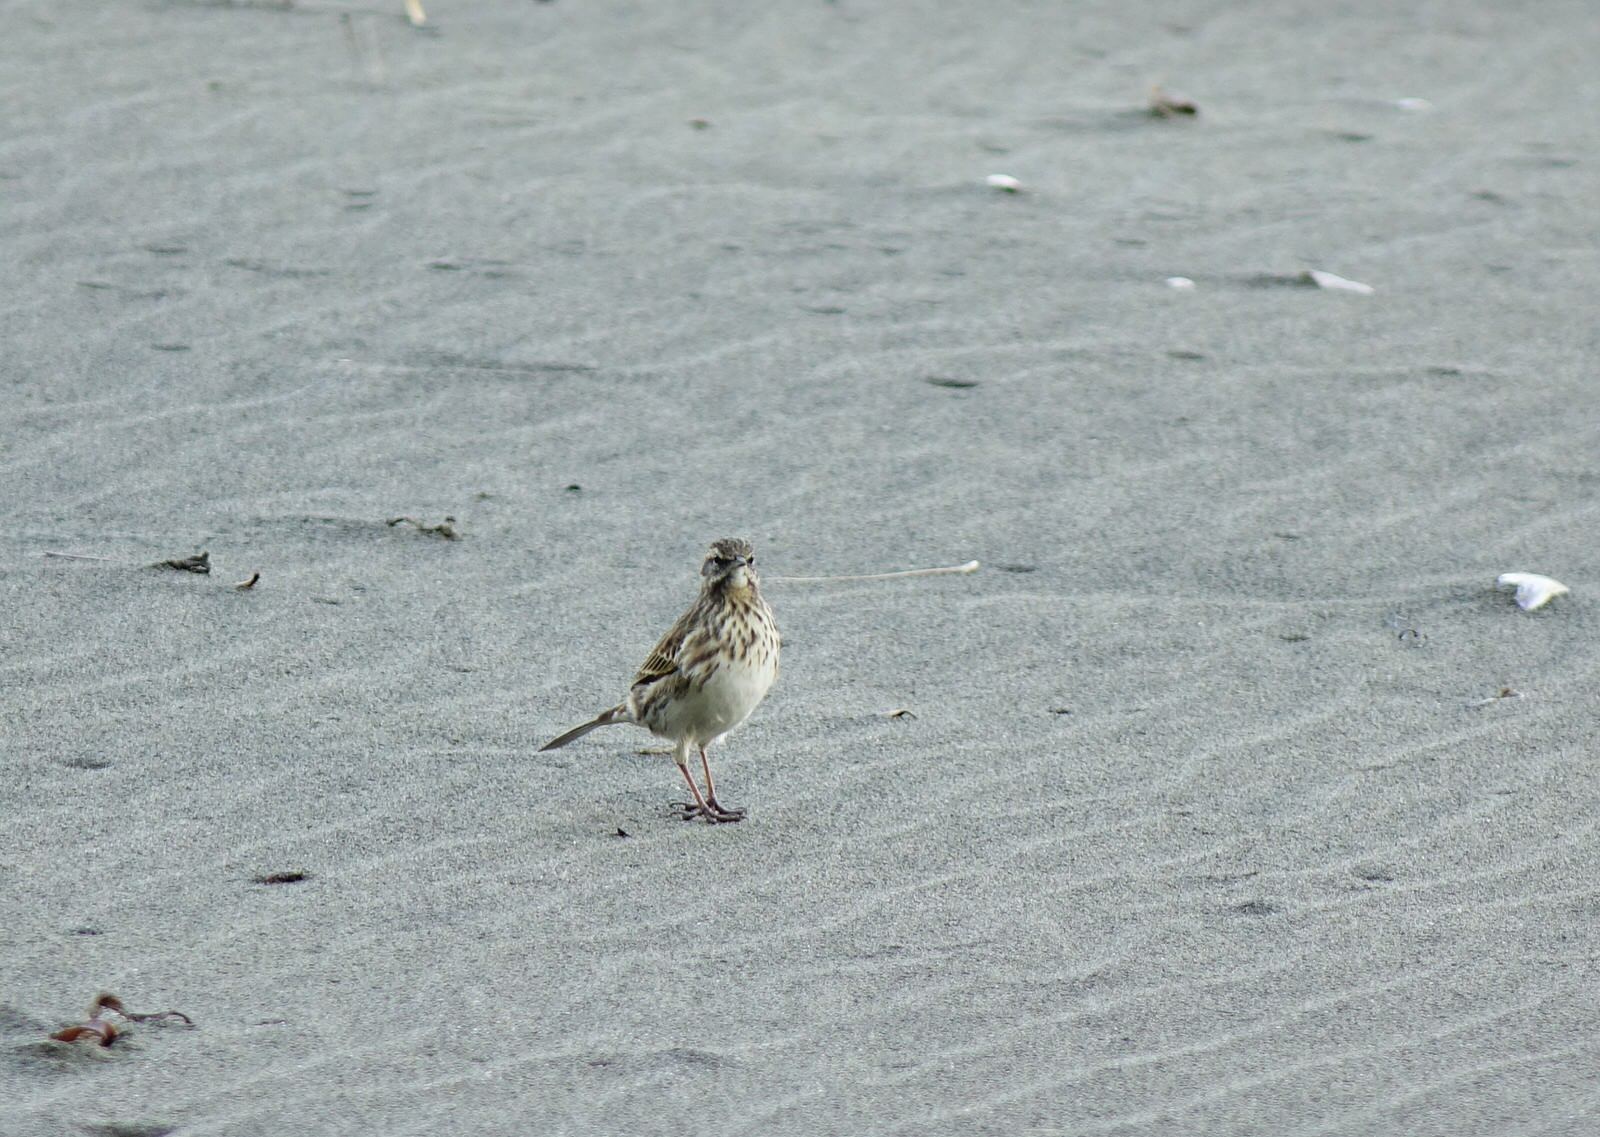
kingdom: Animalia
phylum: Chordata
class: Aves
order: Passeriformes
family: Motacillidae
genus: Anthus
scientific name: Anthus novaeseelandiae
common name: New zealand pipit
